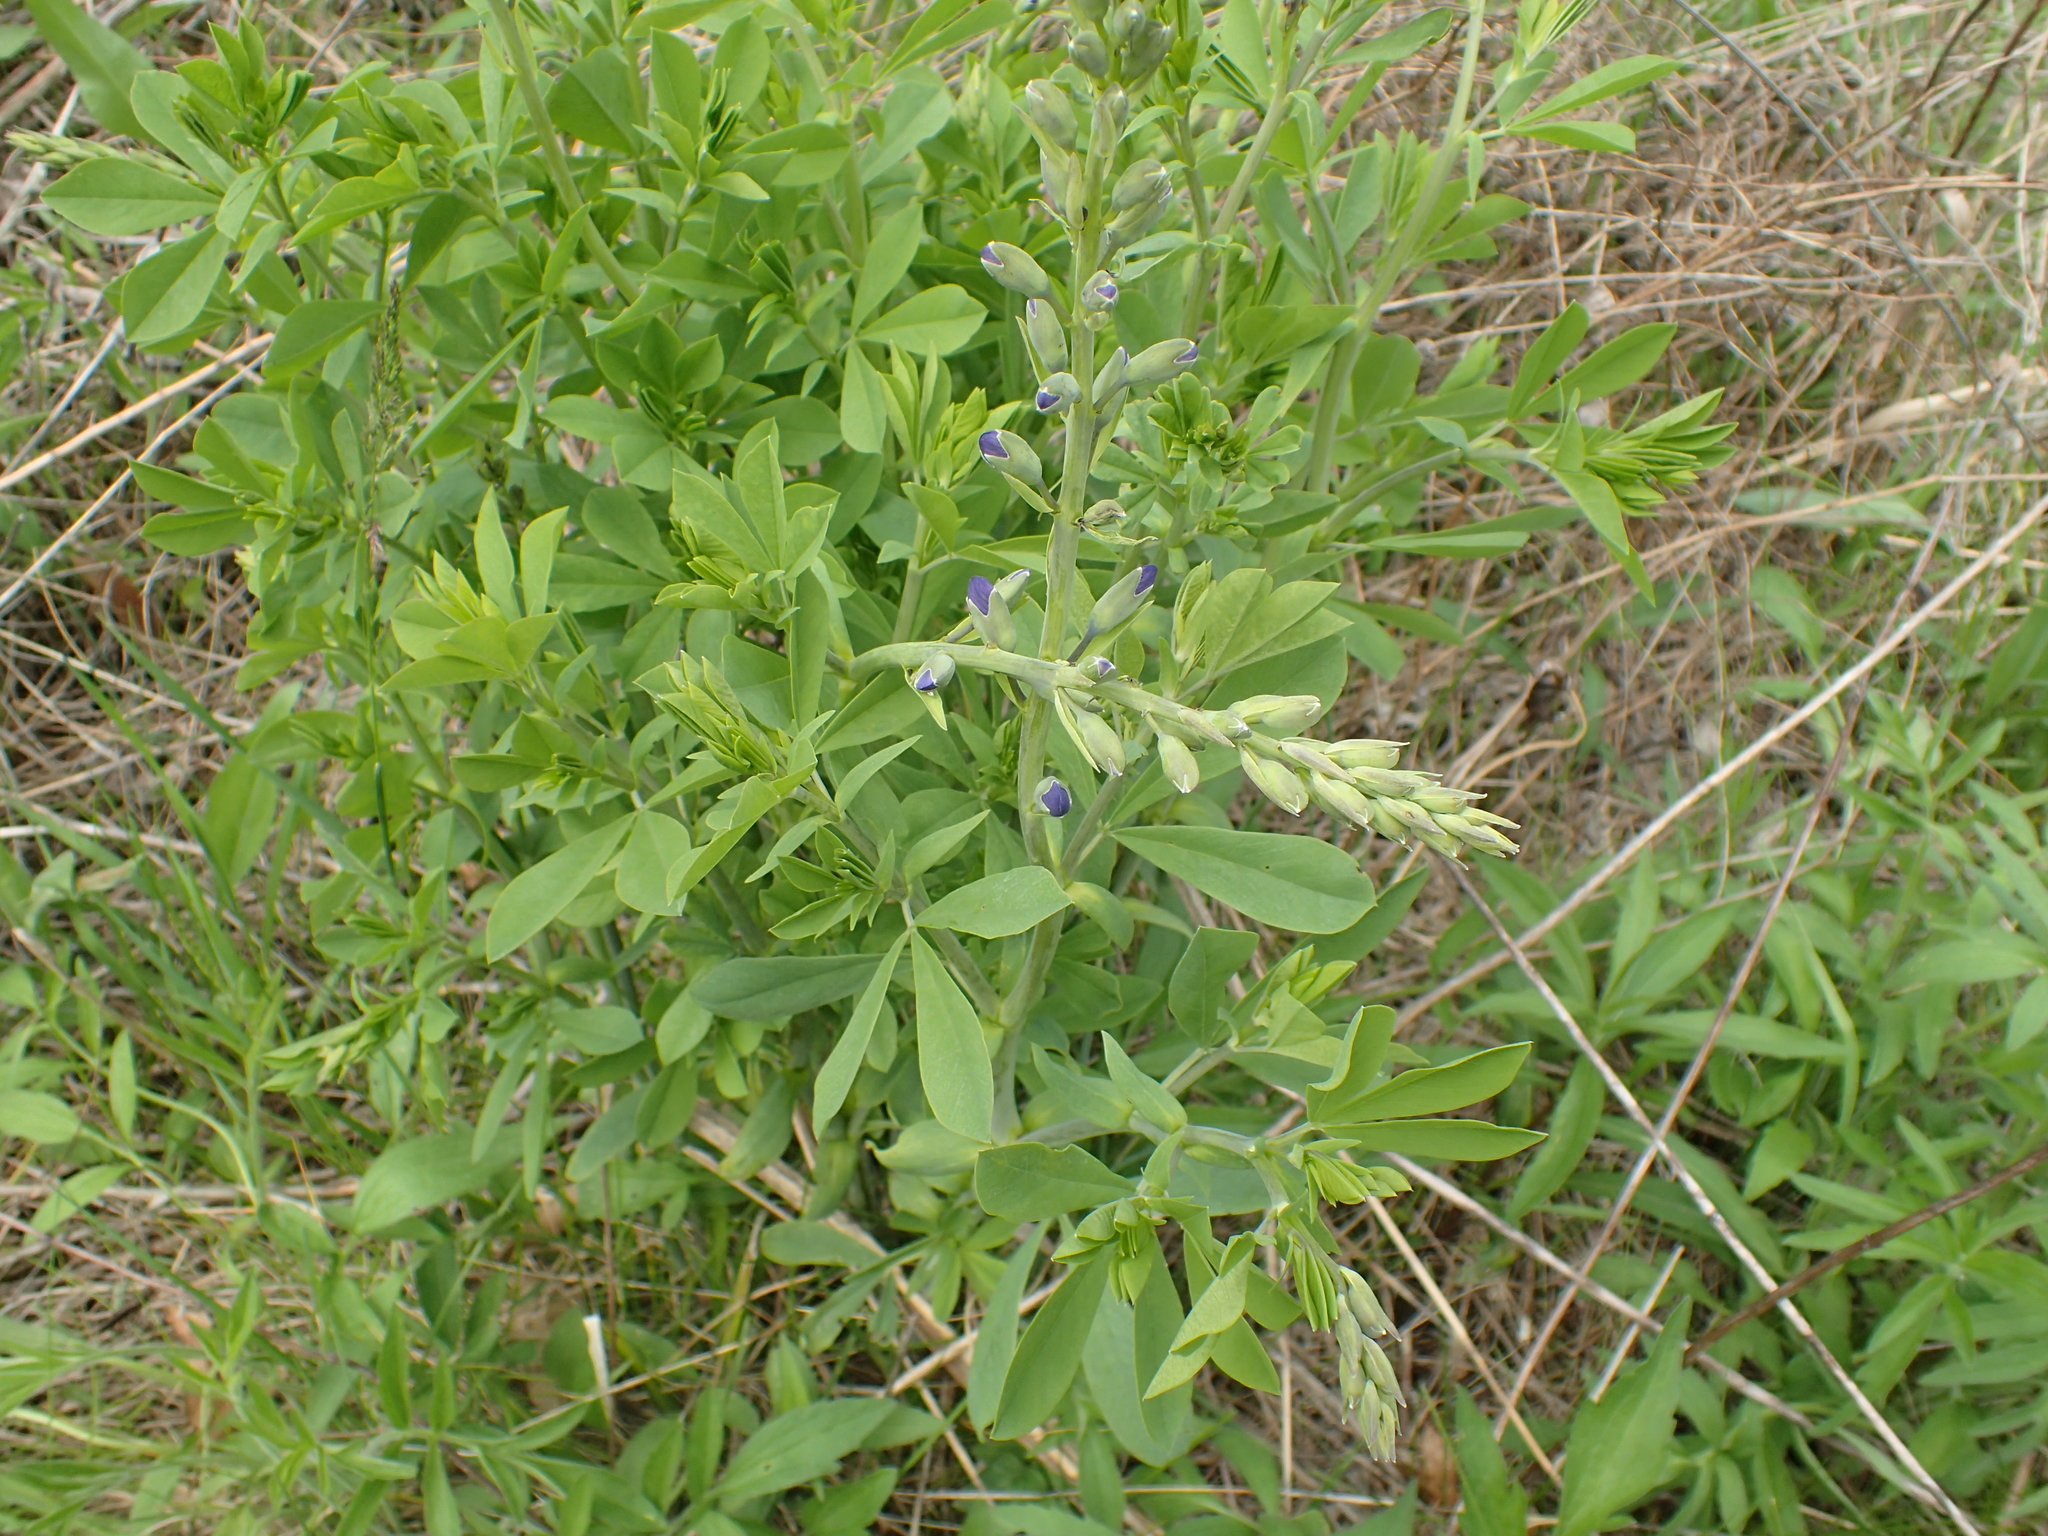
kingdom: Plantae
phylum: Tracheophyta
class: Magnoliopsida
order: Fabales
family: Fabaceae
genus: Baptisia
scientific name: Baptisia australis
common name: Blue false indigo
